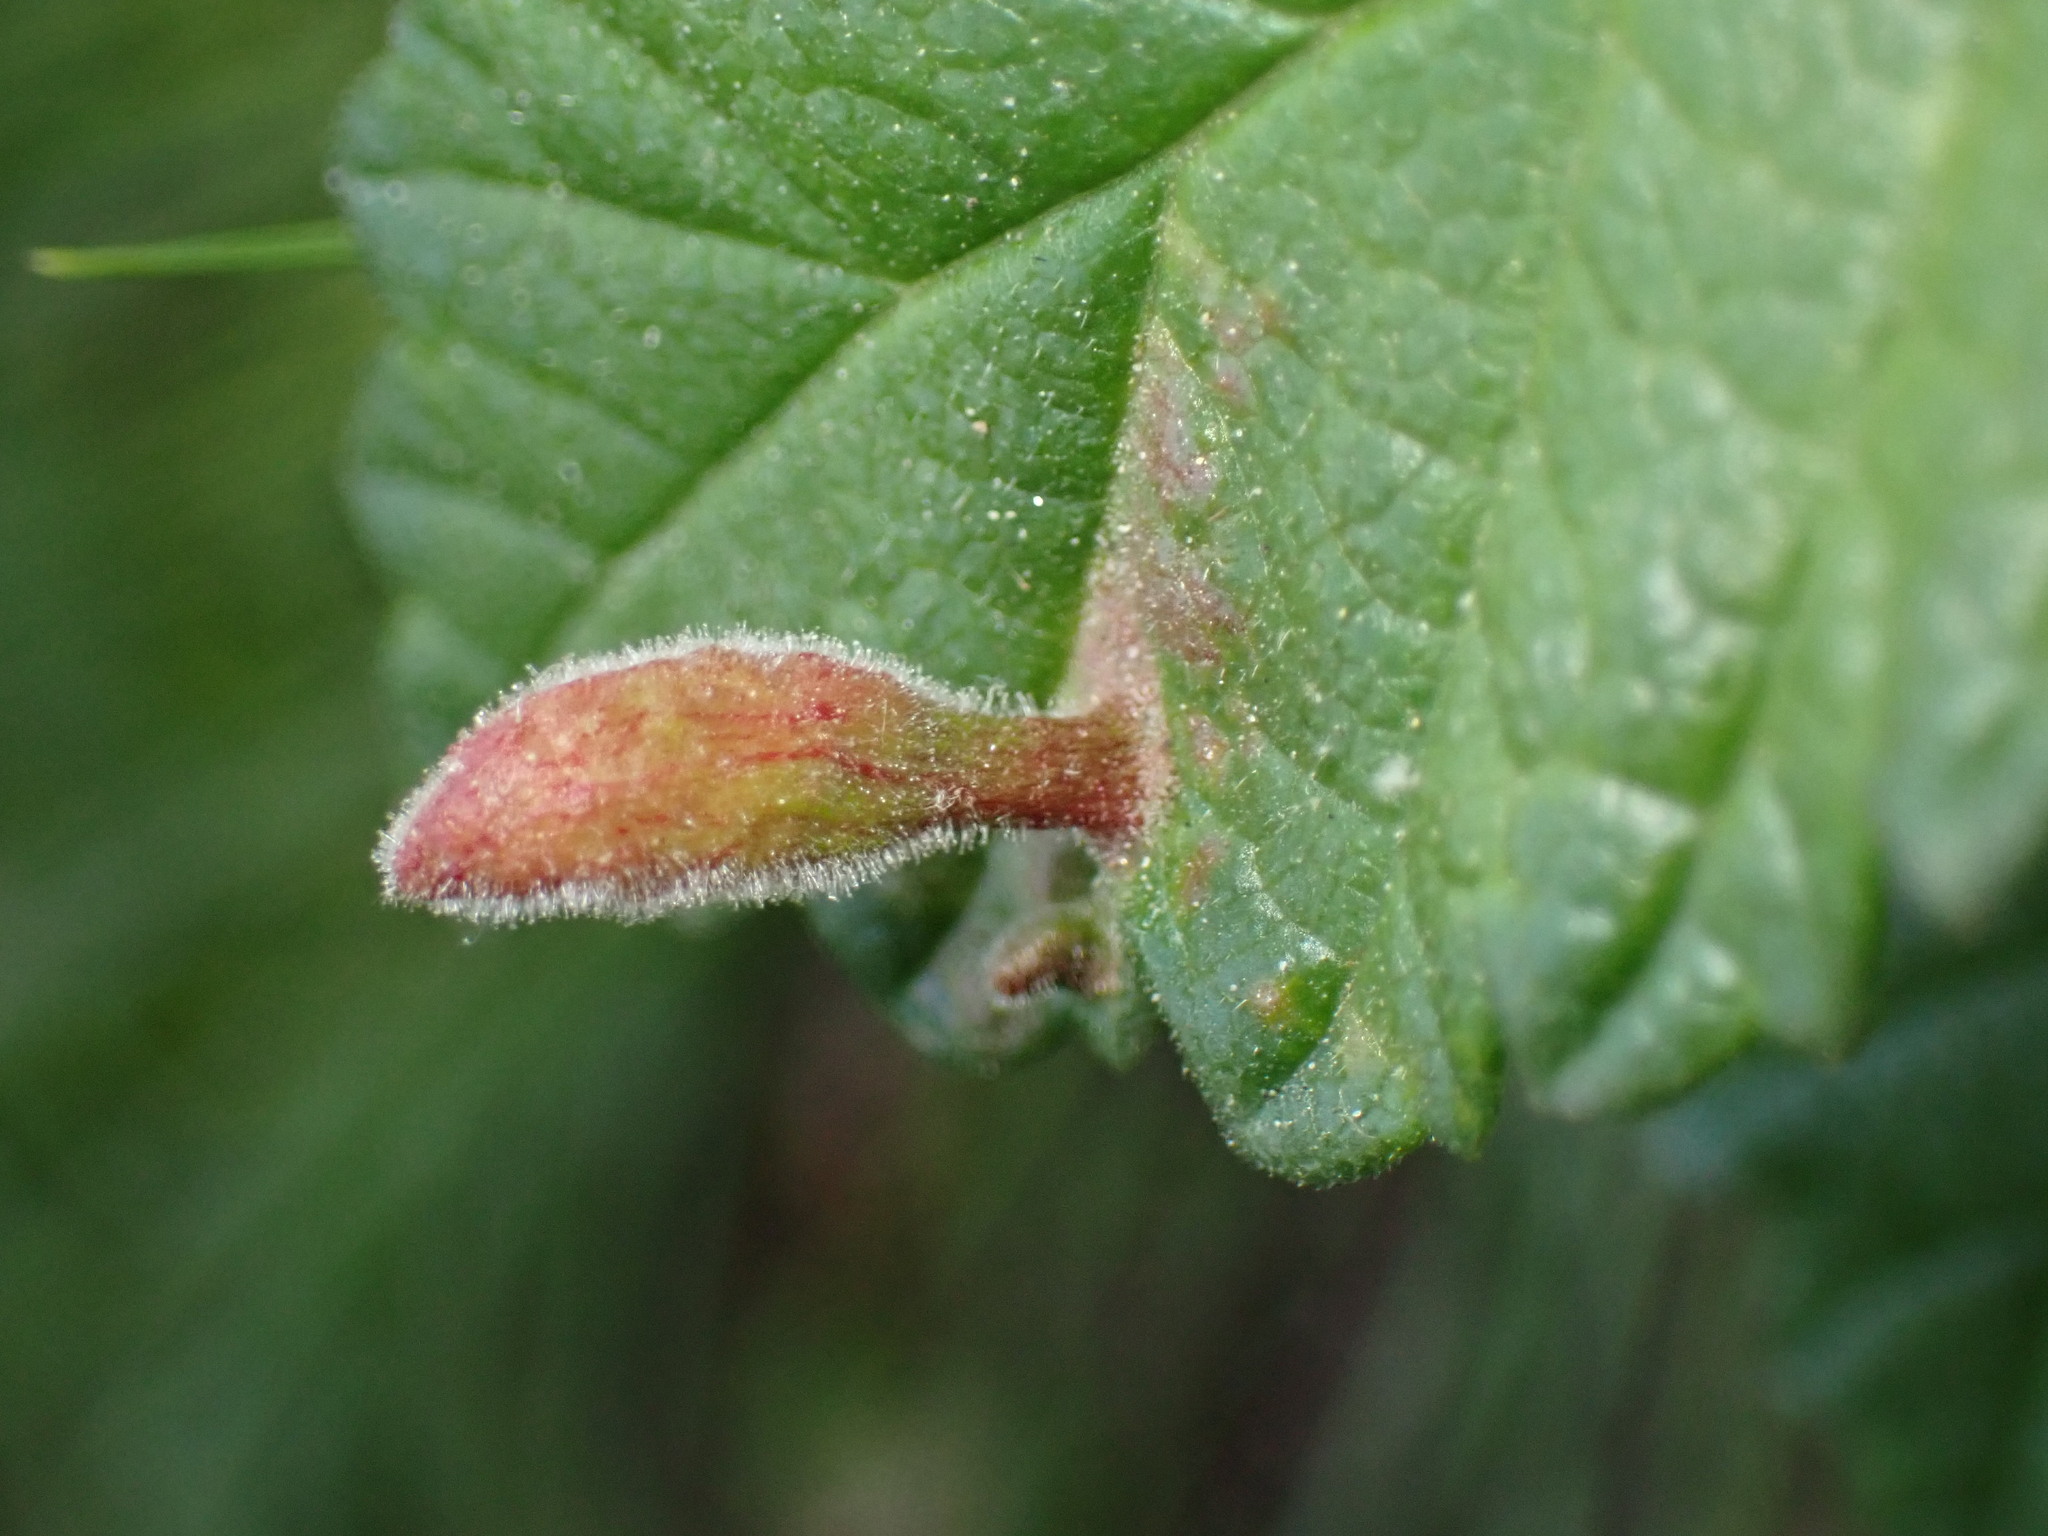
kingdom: Animalia
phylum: Arthropoda
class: Insecta
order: Hemiptera
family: Aphididae
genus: Tetraneura
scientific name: Tetraneura nigriabdominalis
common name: Aphid
